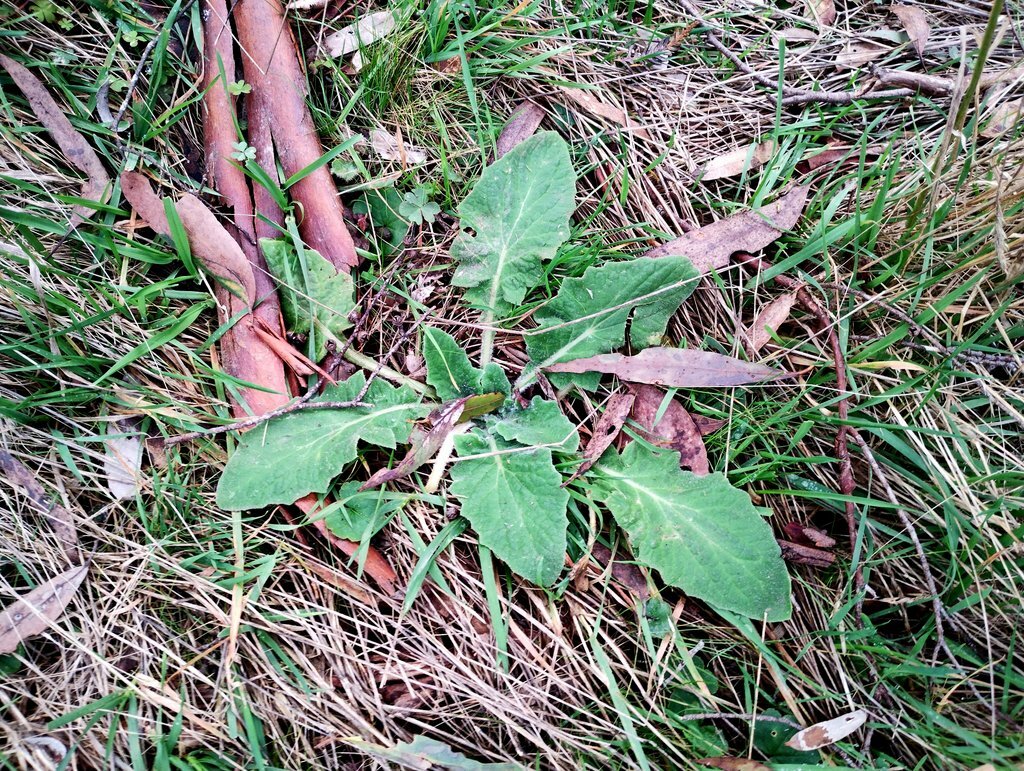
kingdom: Plantae
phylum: Tracheophyta
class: Magnoliopsida
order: Asterales
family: Asteraceae
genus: Cymbonotus
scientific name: Cymbonotus preissianus
